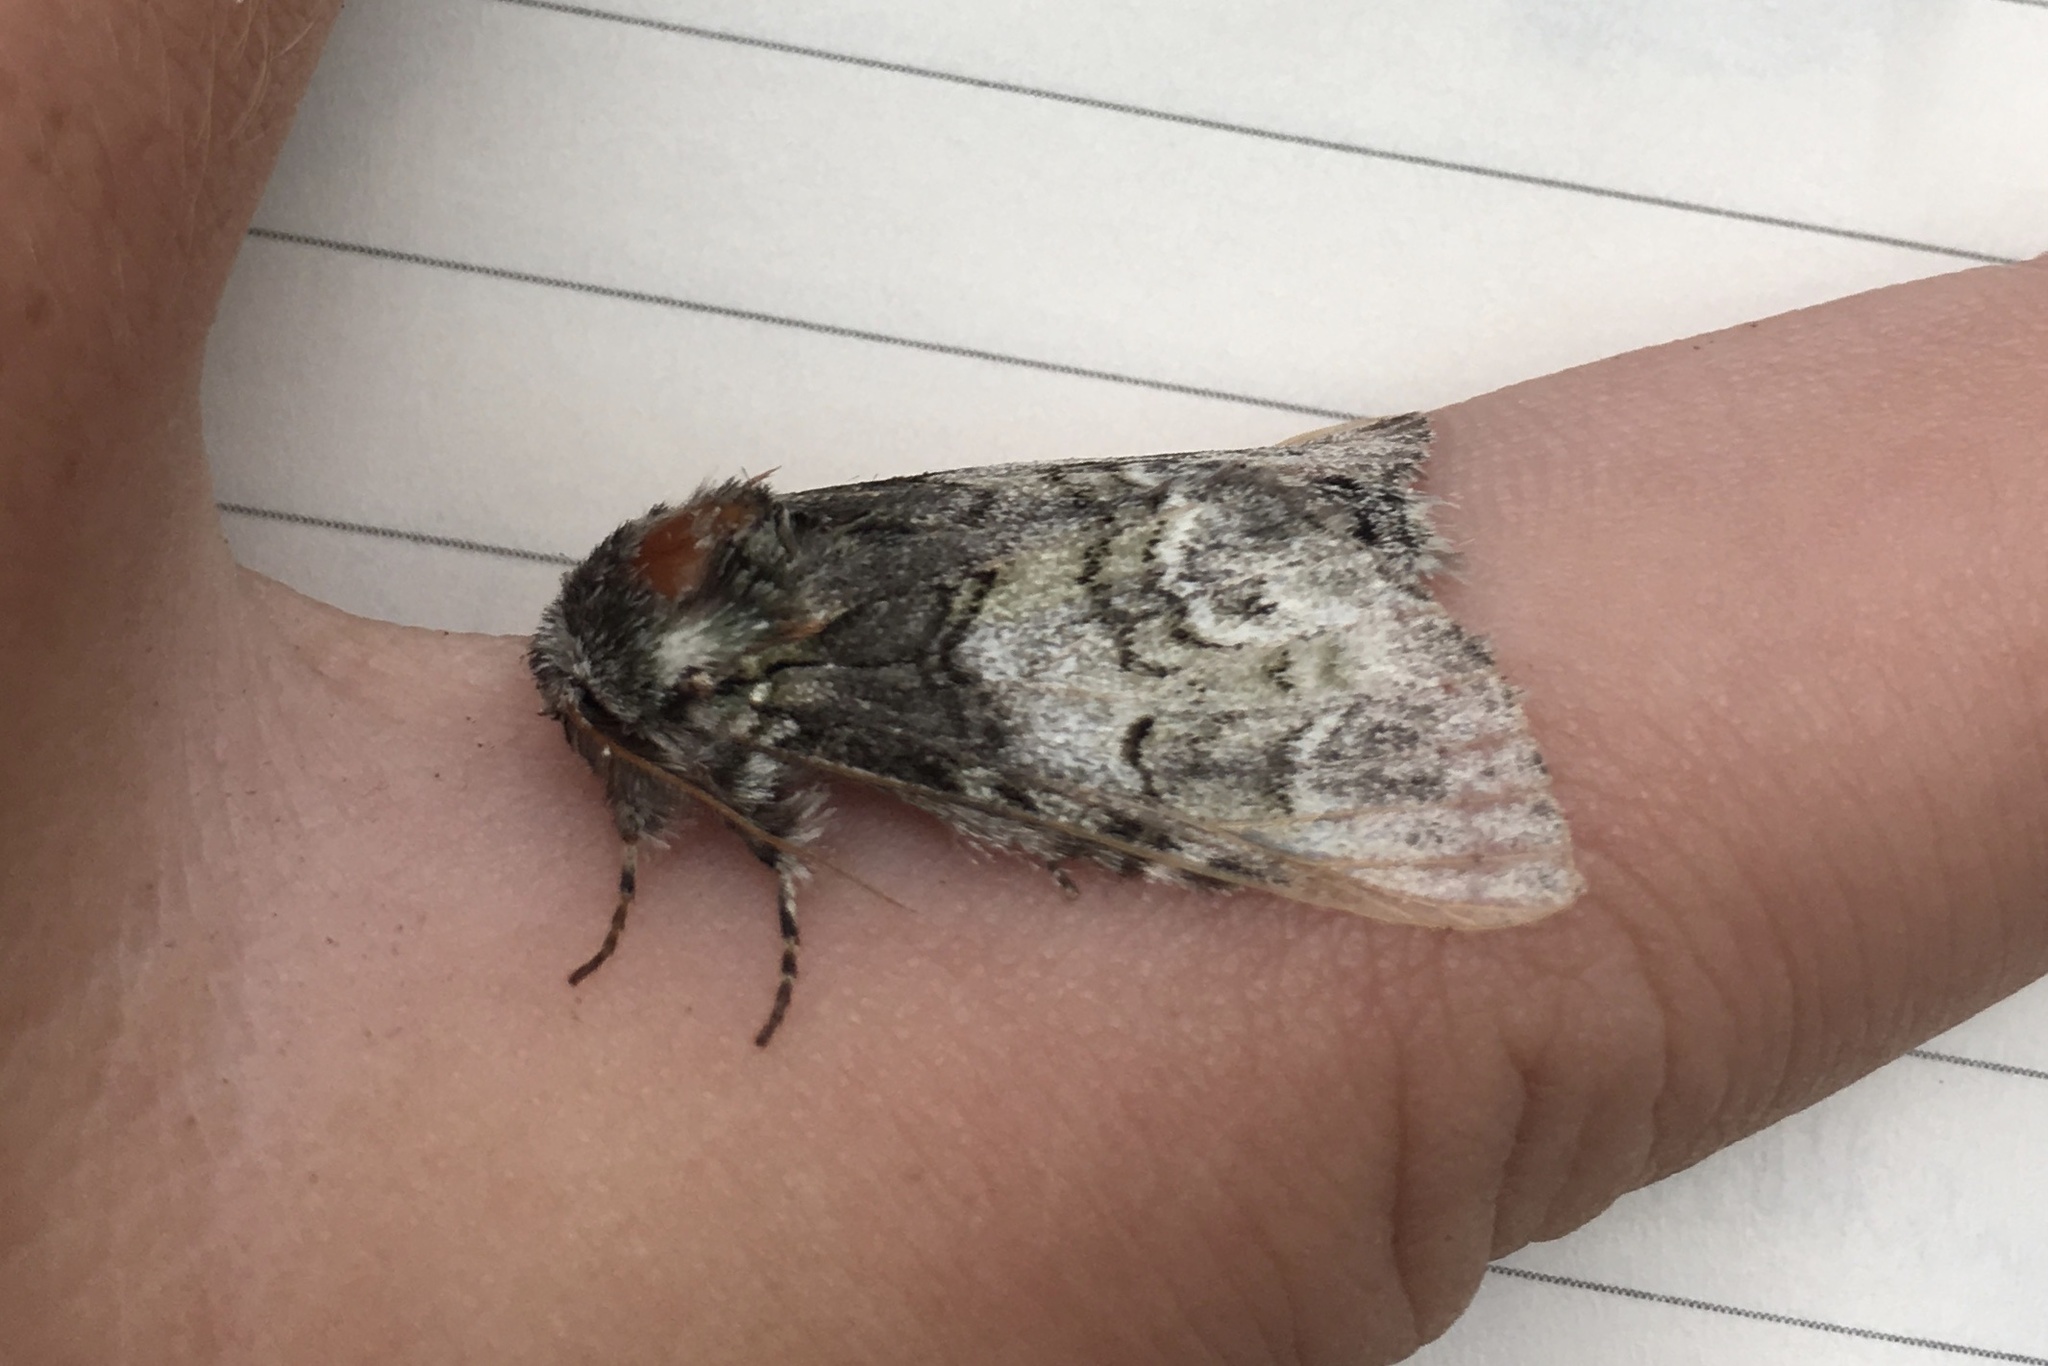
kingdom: Animalia
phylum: Arthropoda
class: Insecta
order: Lepidoptera
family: Notodontidae
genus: Macrurocampa
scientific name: Macrurocampa marthesia
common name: Mottled prominent
